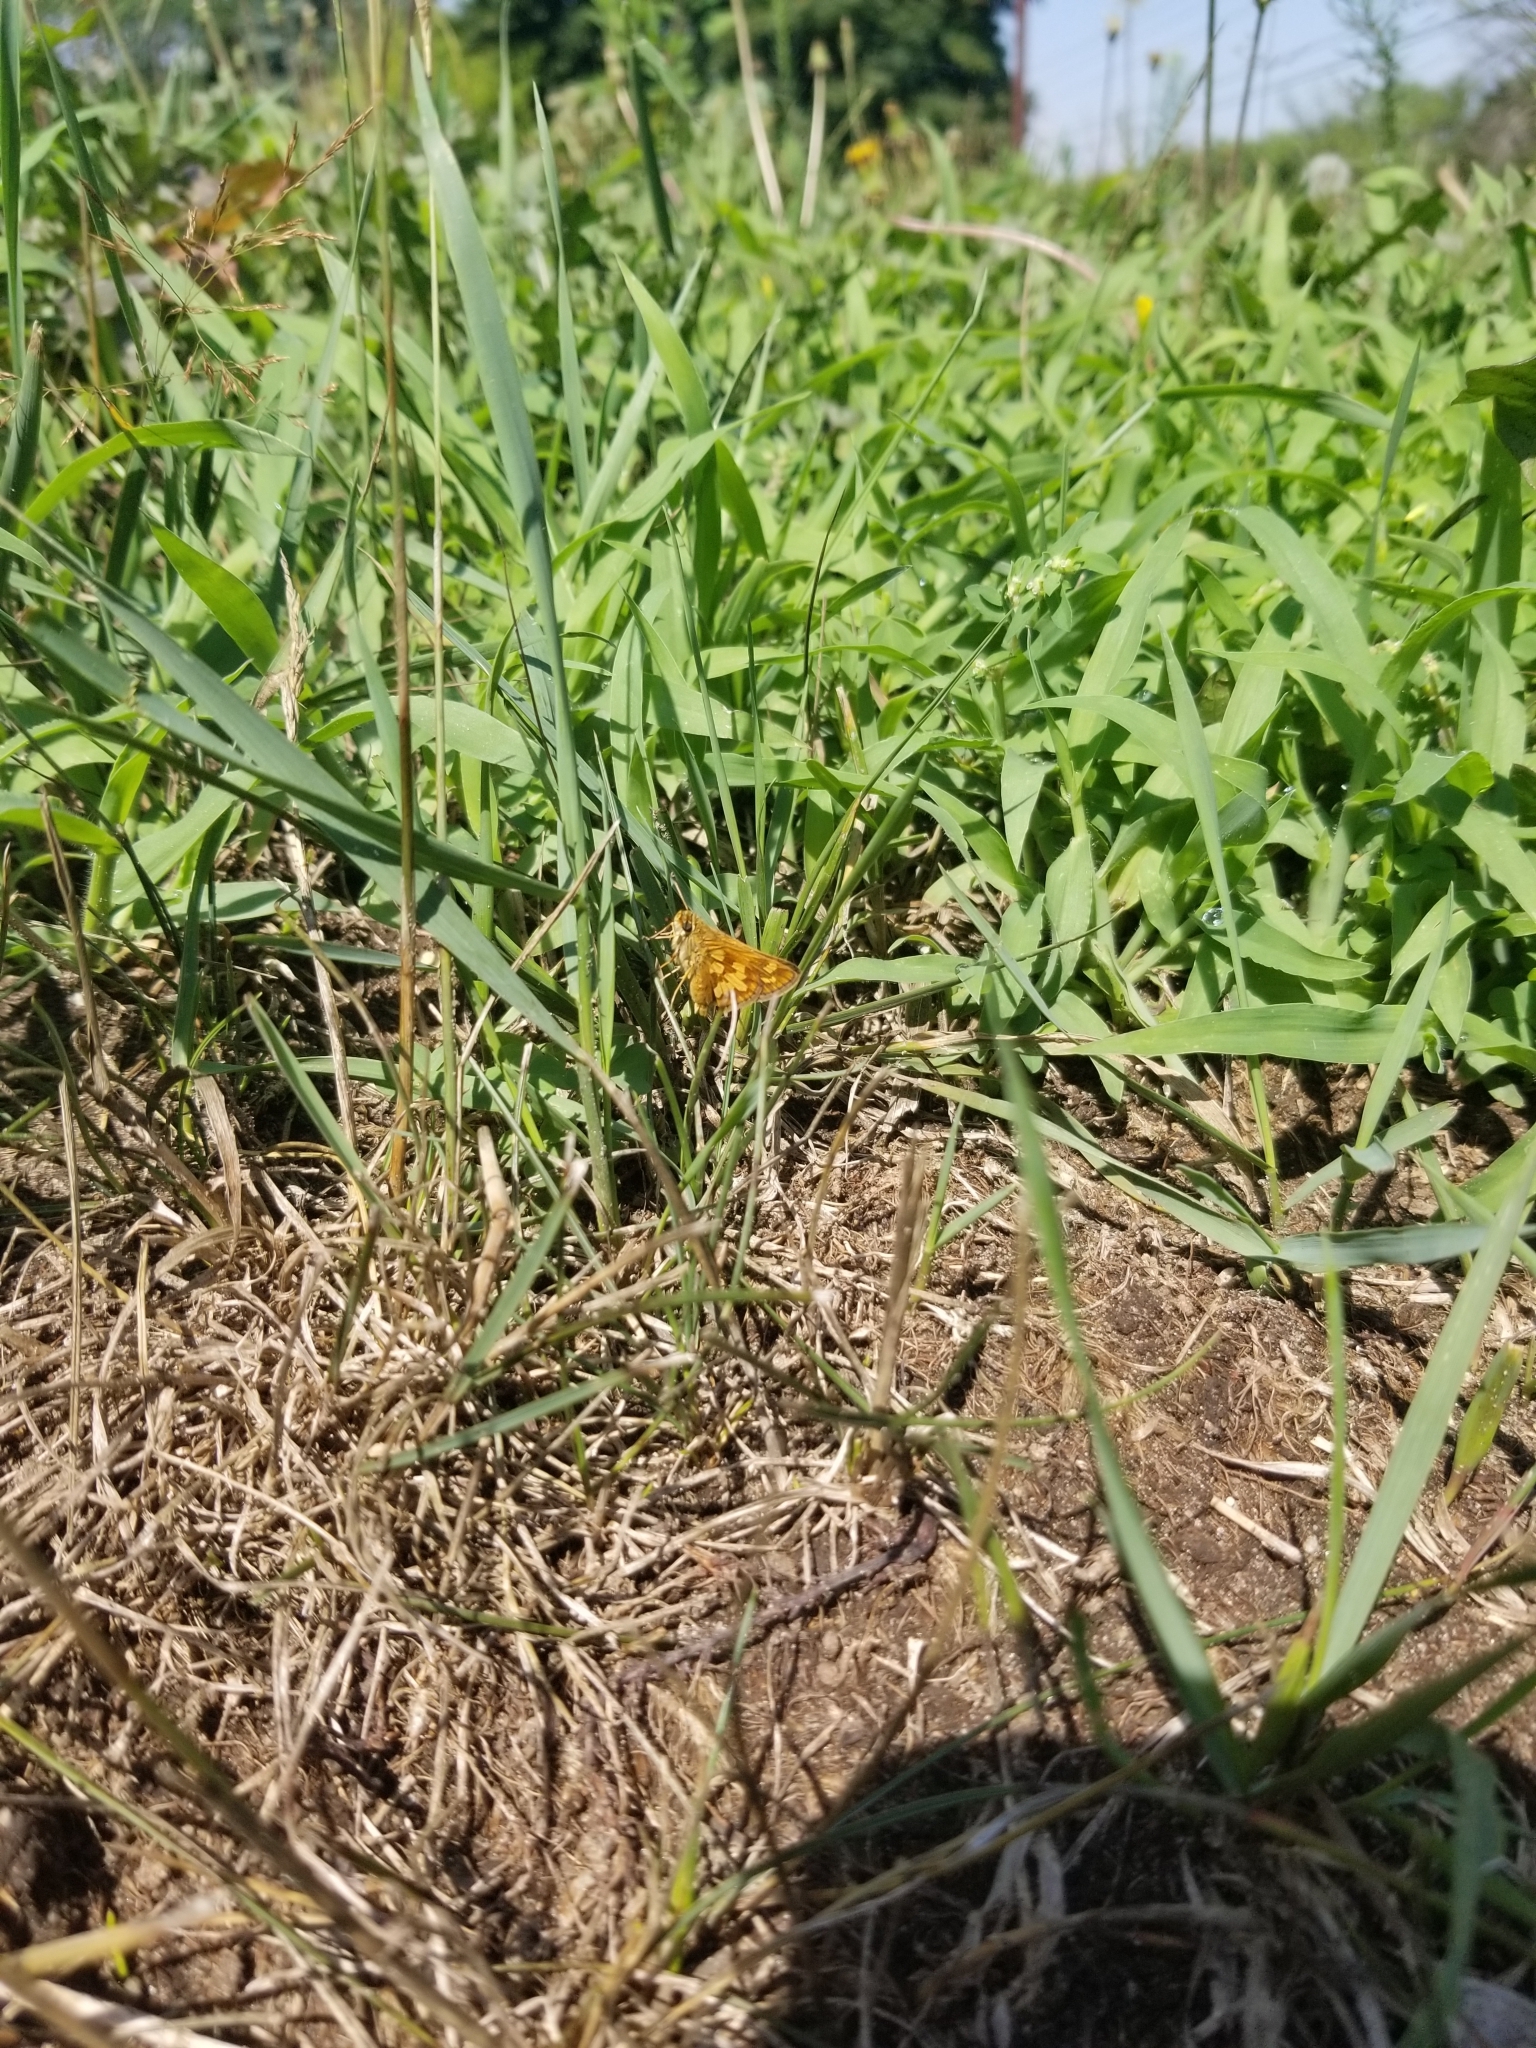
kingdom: Animalia
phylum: Arthropoda
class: Insecta
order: Lepidoptera
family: Hesperiidae
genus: Polites
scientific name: Polites coras
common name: Peck's skipper
